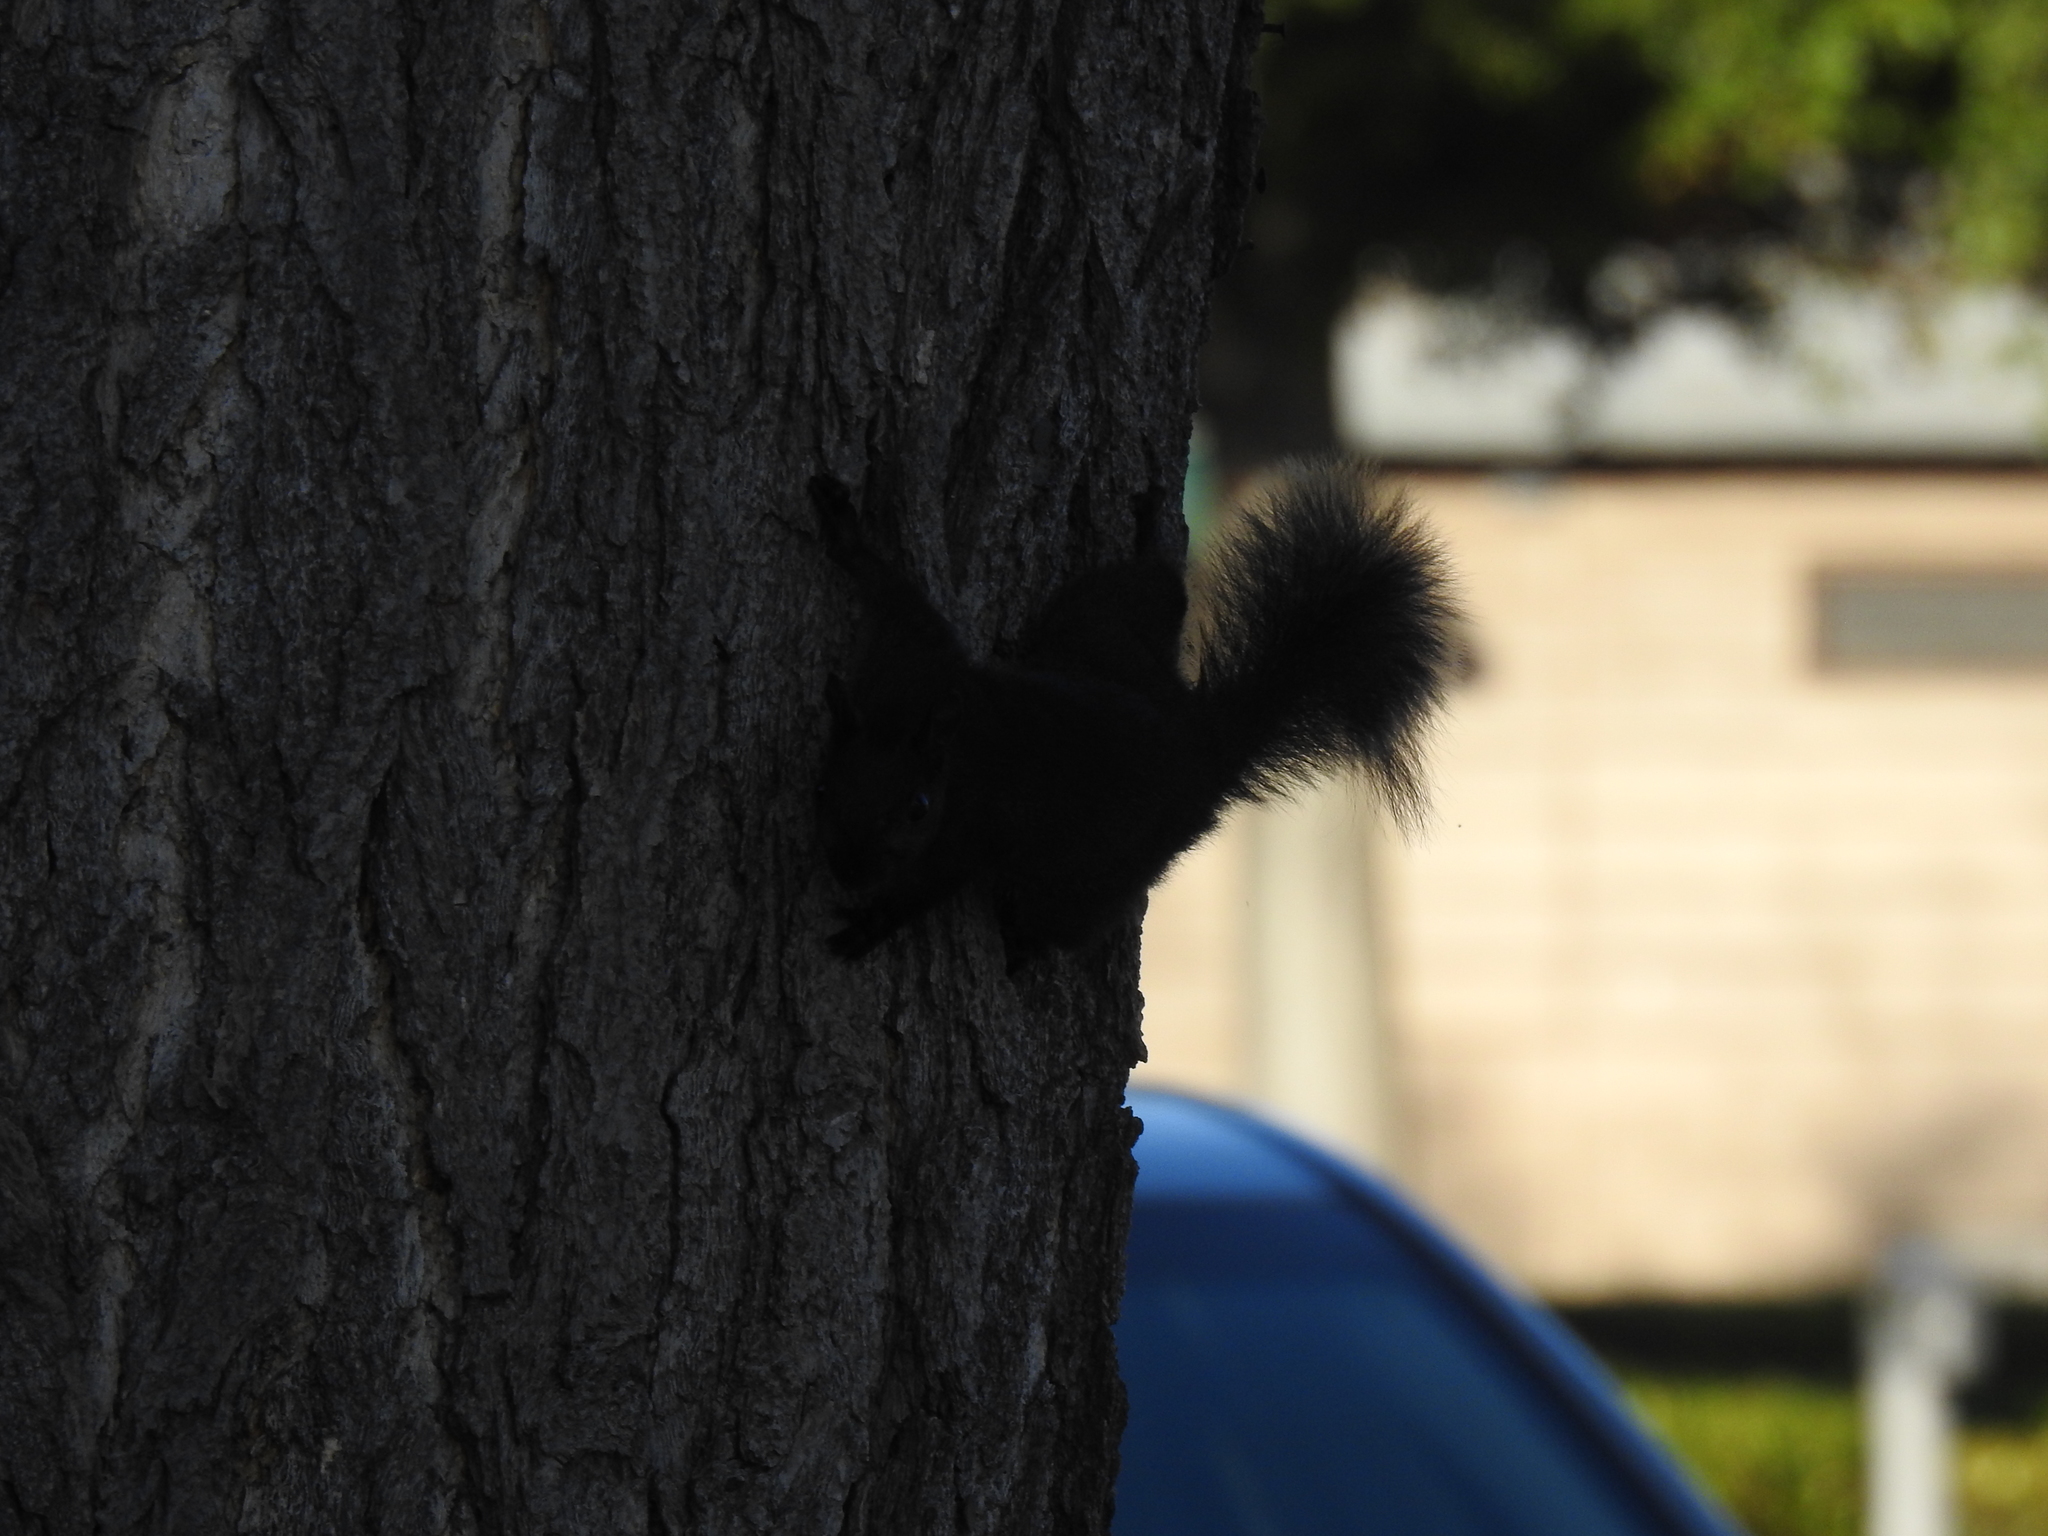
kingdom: Animalia
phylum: Chordata
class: Mammalia
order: Rodentia
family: Sciuridae
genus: Sciurus
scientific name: Sciurus carolinensis
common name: Eastern gray squirrel
